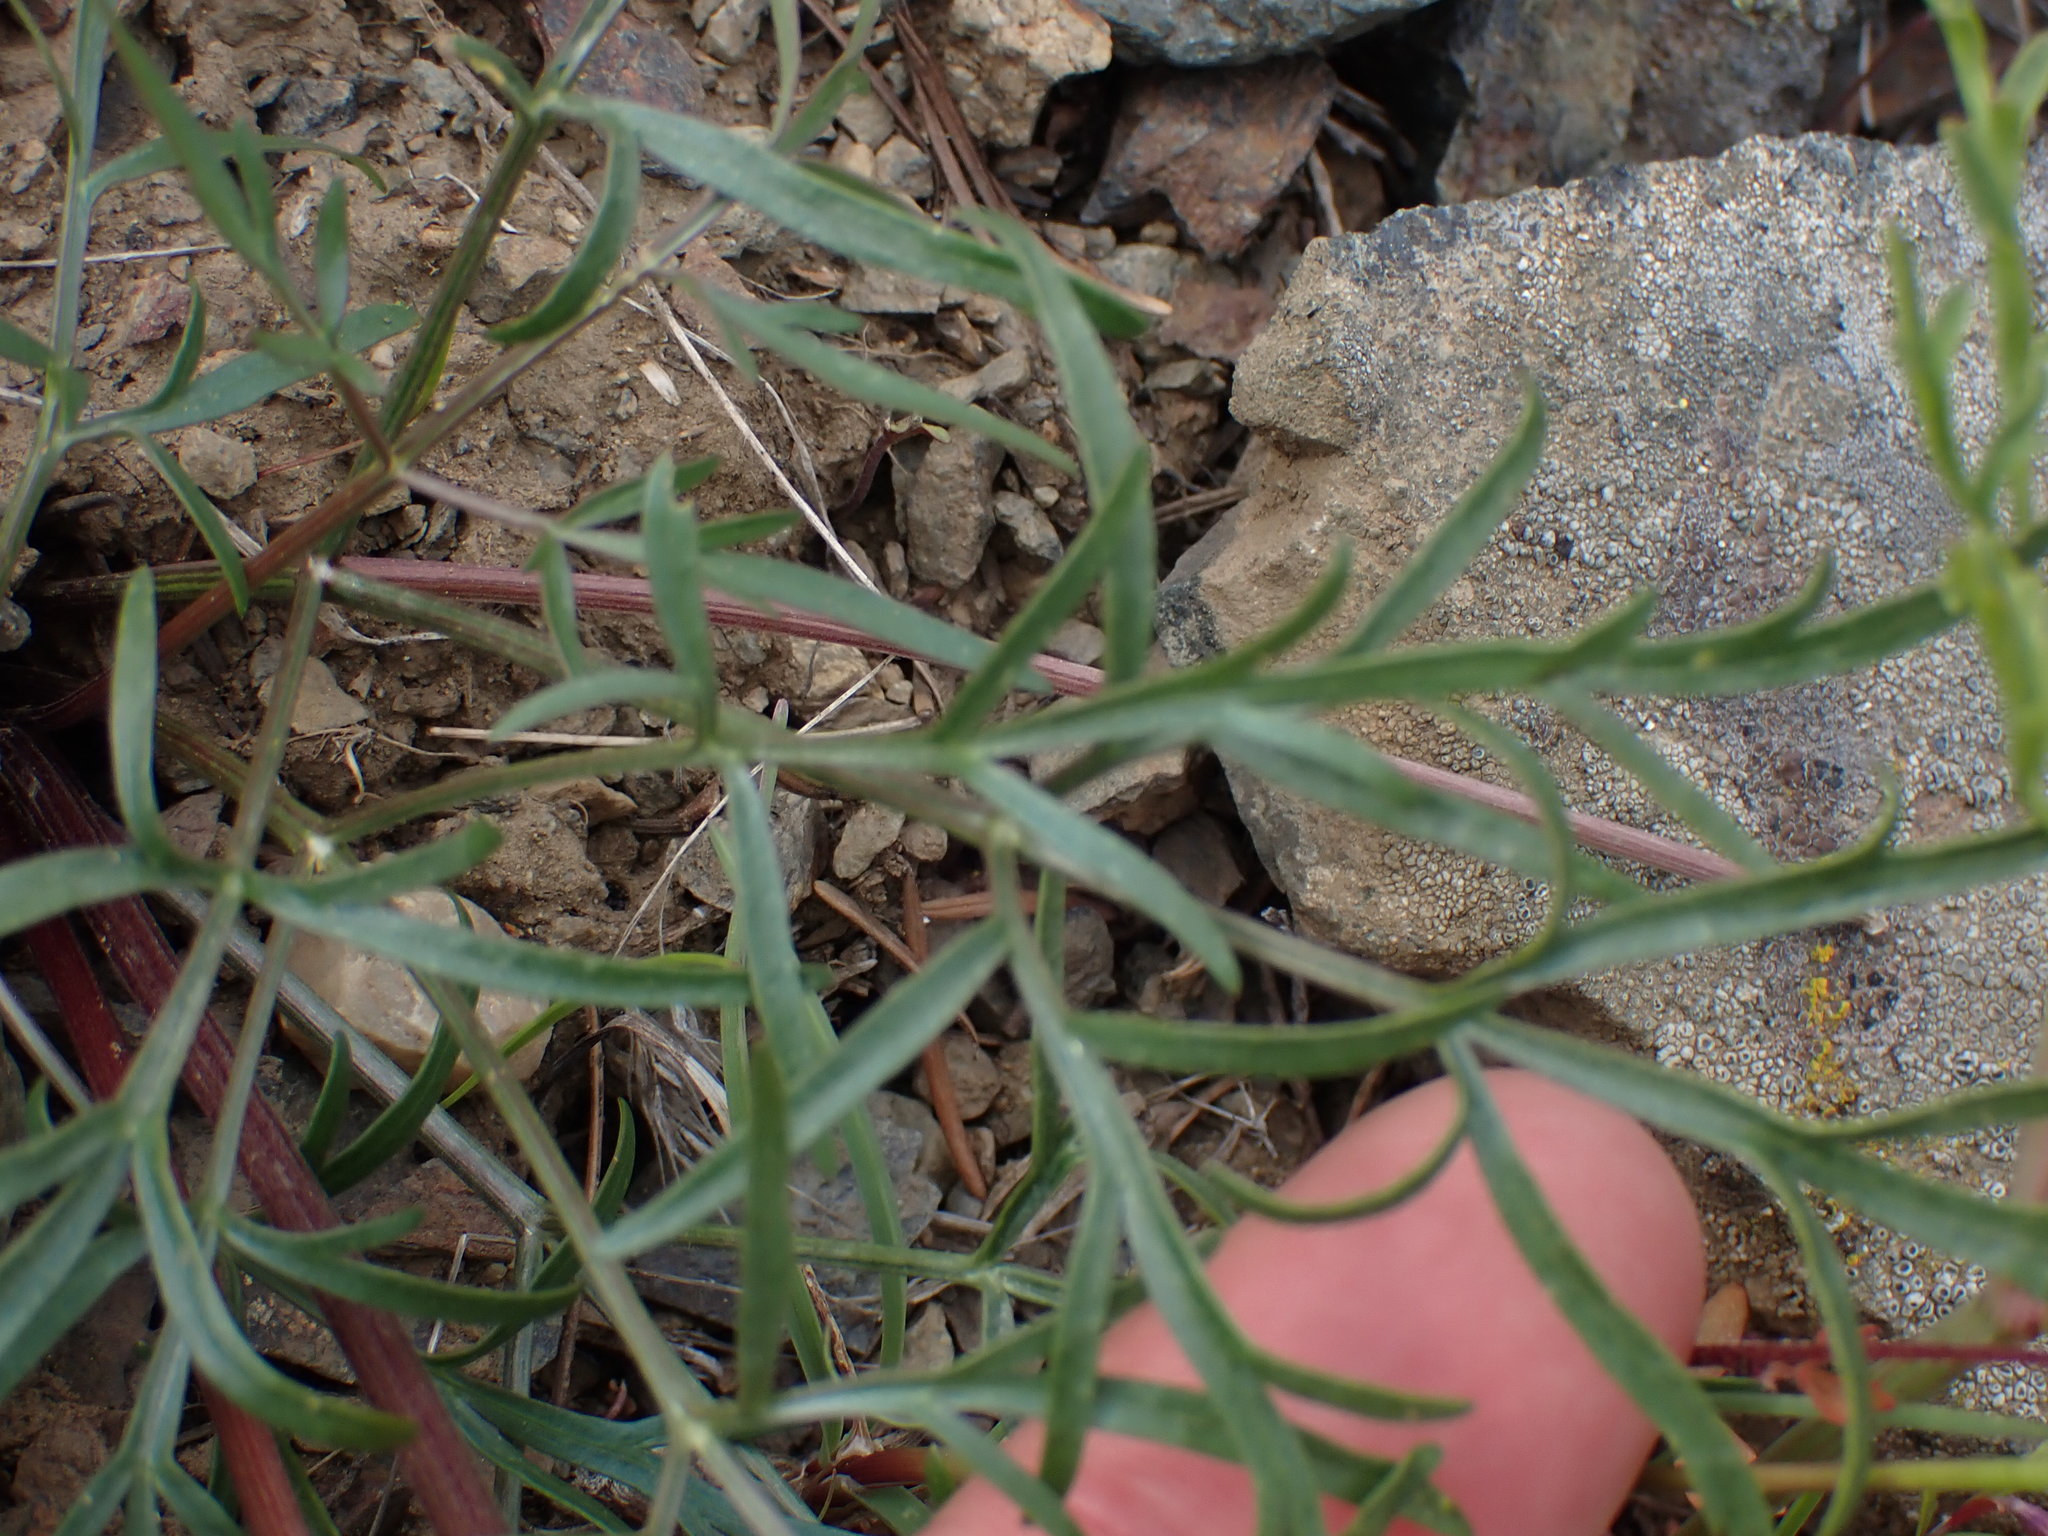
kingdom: Plantae
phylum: Tracheophyta
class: Magnoliopsida
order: Apiales
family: Apiaceae
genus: Lomatium
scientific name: Lomatium geyeri
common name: Geyer's biscuitroot
